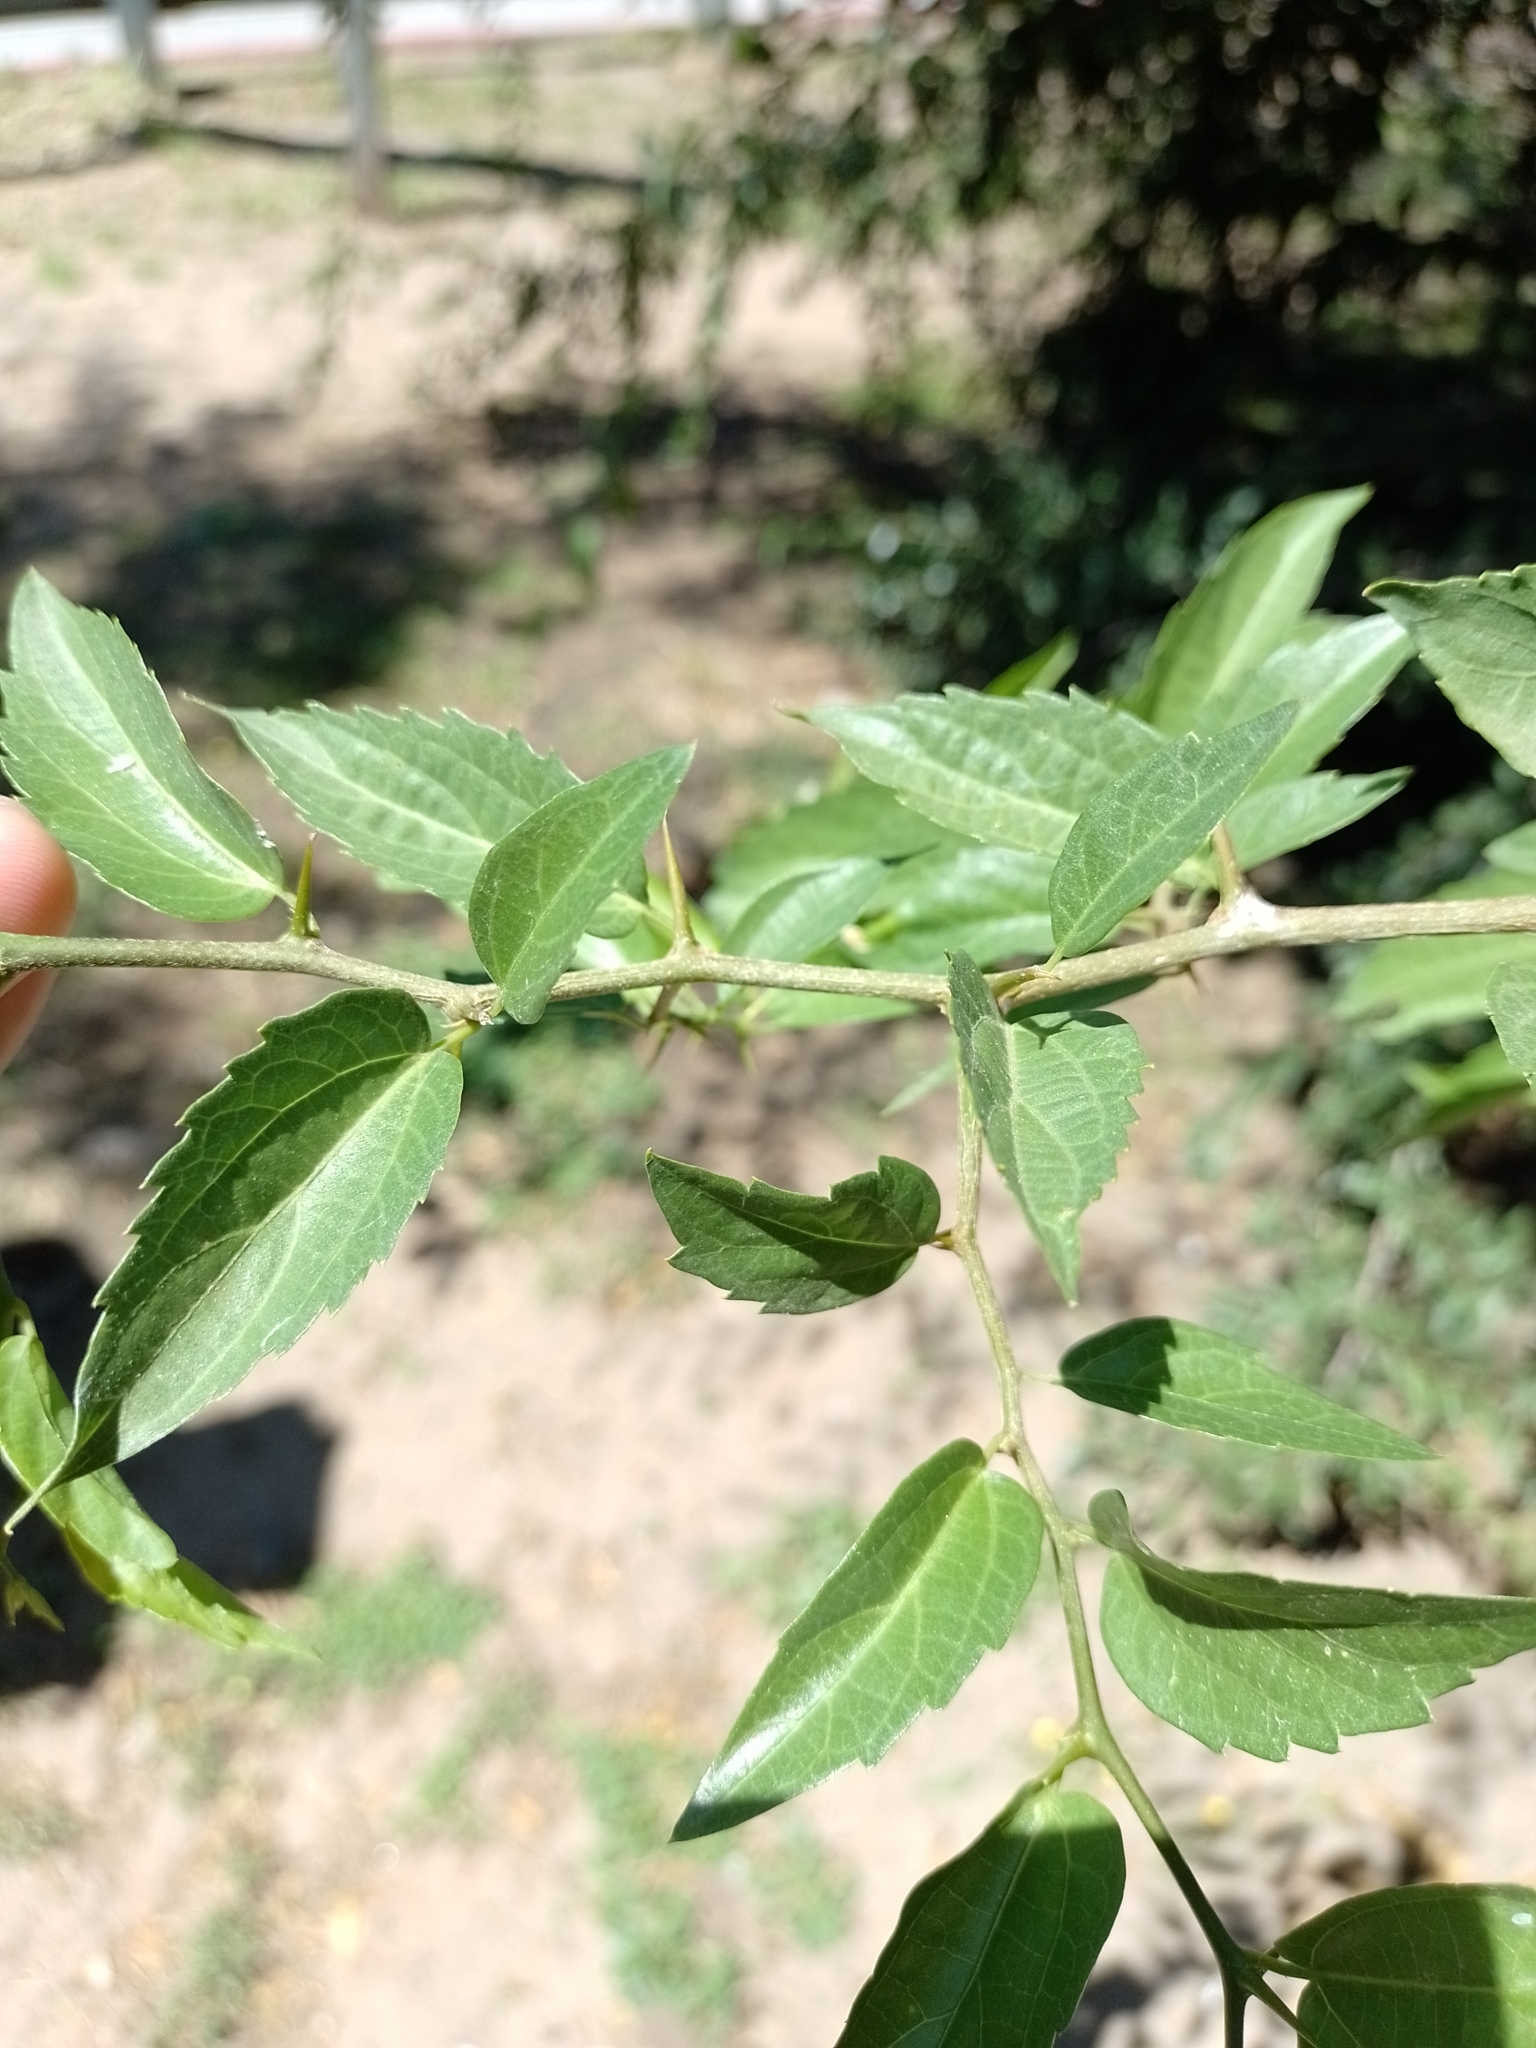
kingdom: Plantae
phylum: Tracheophyta
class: Magnoliopsida
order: Rosales
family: Cannabaceae
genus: Celtis
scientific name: Celtis tala
